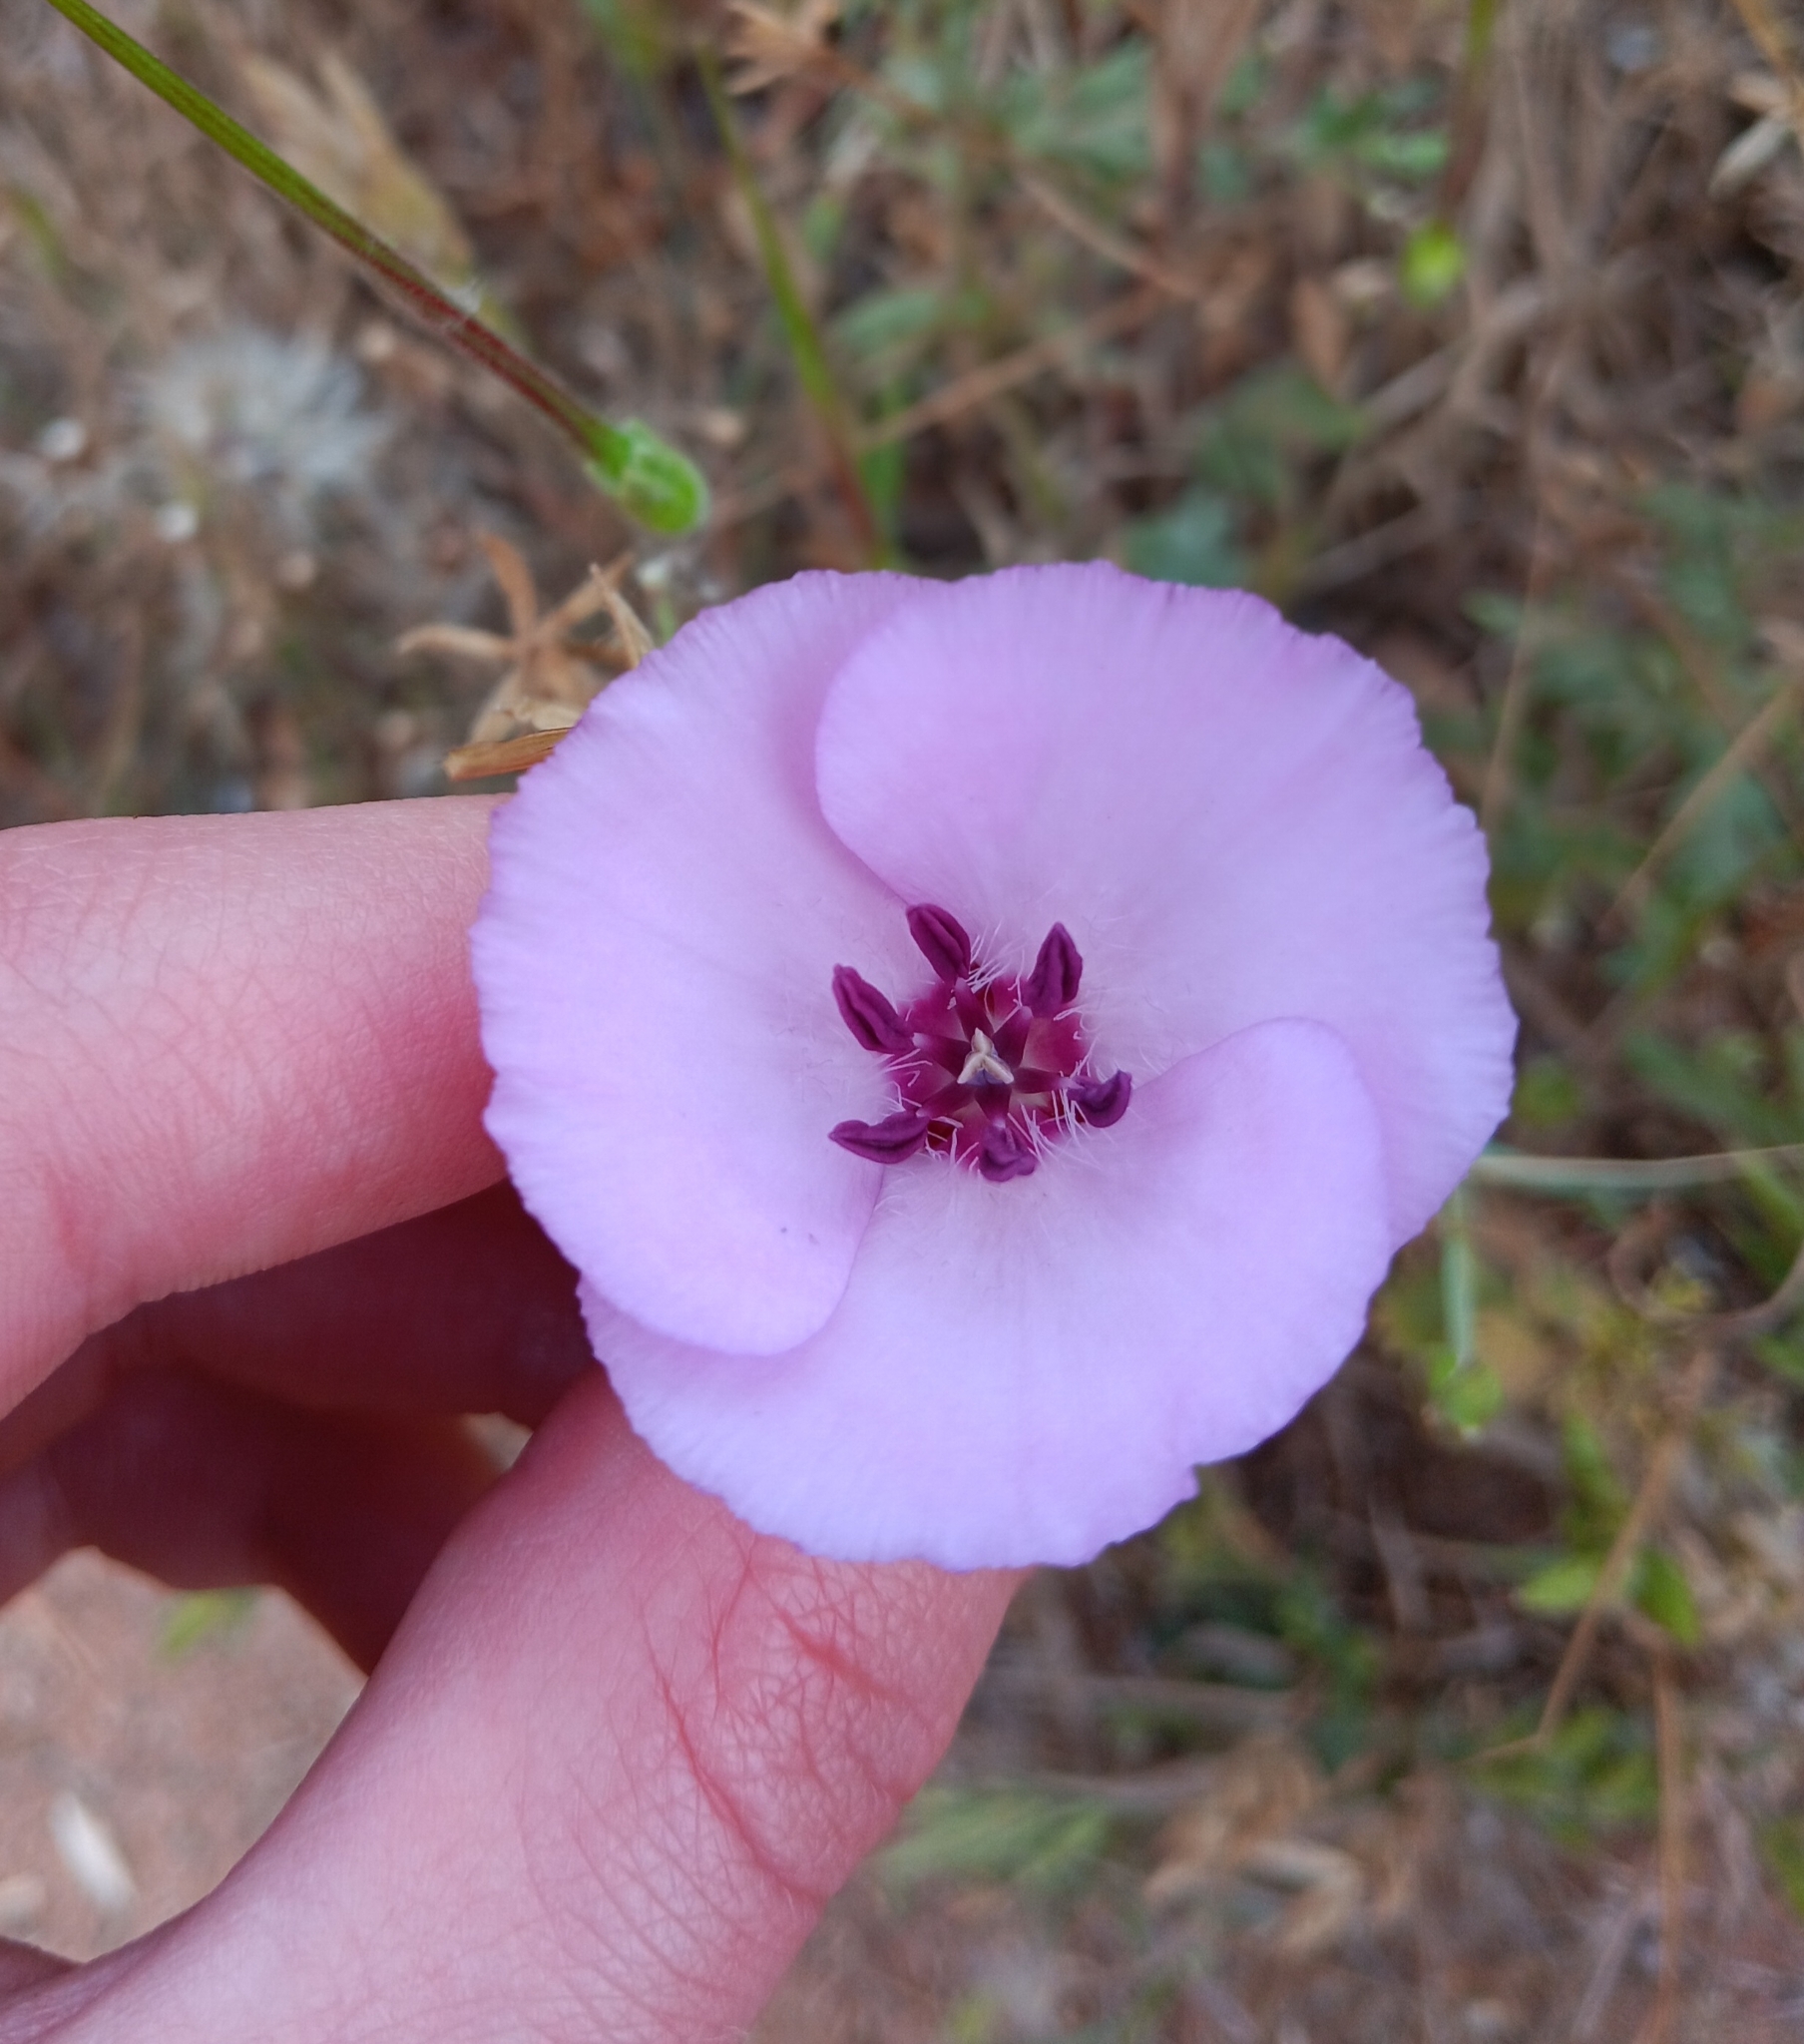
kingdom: Plantae
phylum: Tracheophyta
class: Liliopsida
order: Liliales
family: Liliaceae
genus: Calochortus
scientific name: Calochortus splendens
